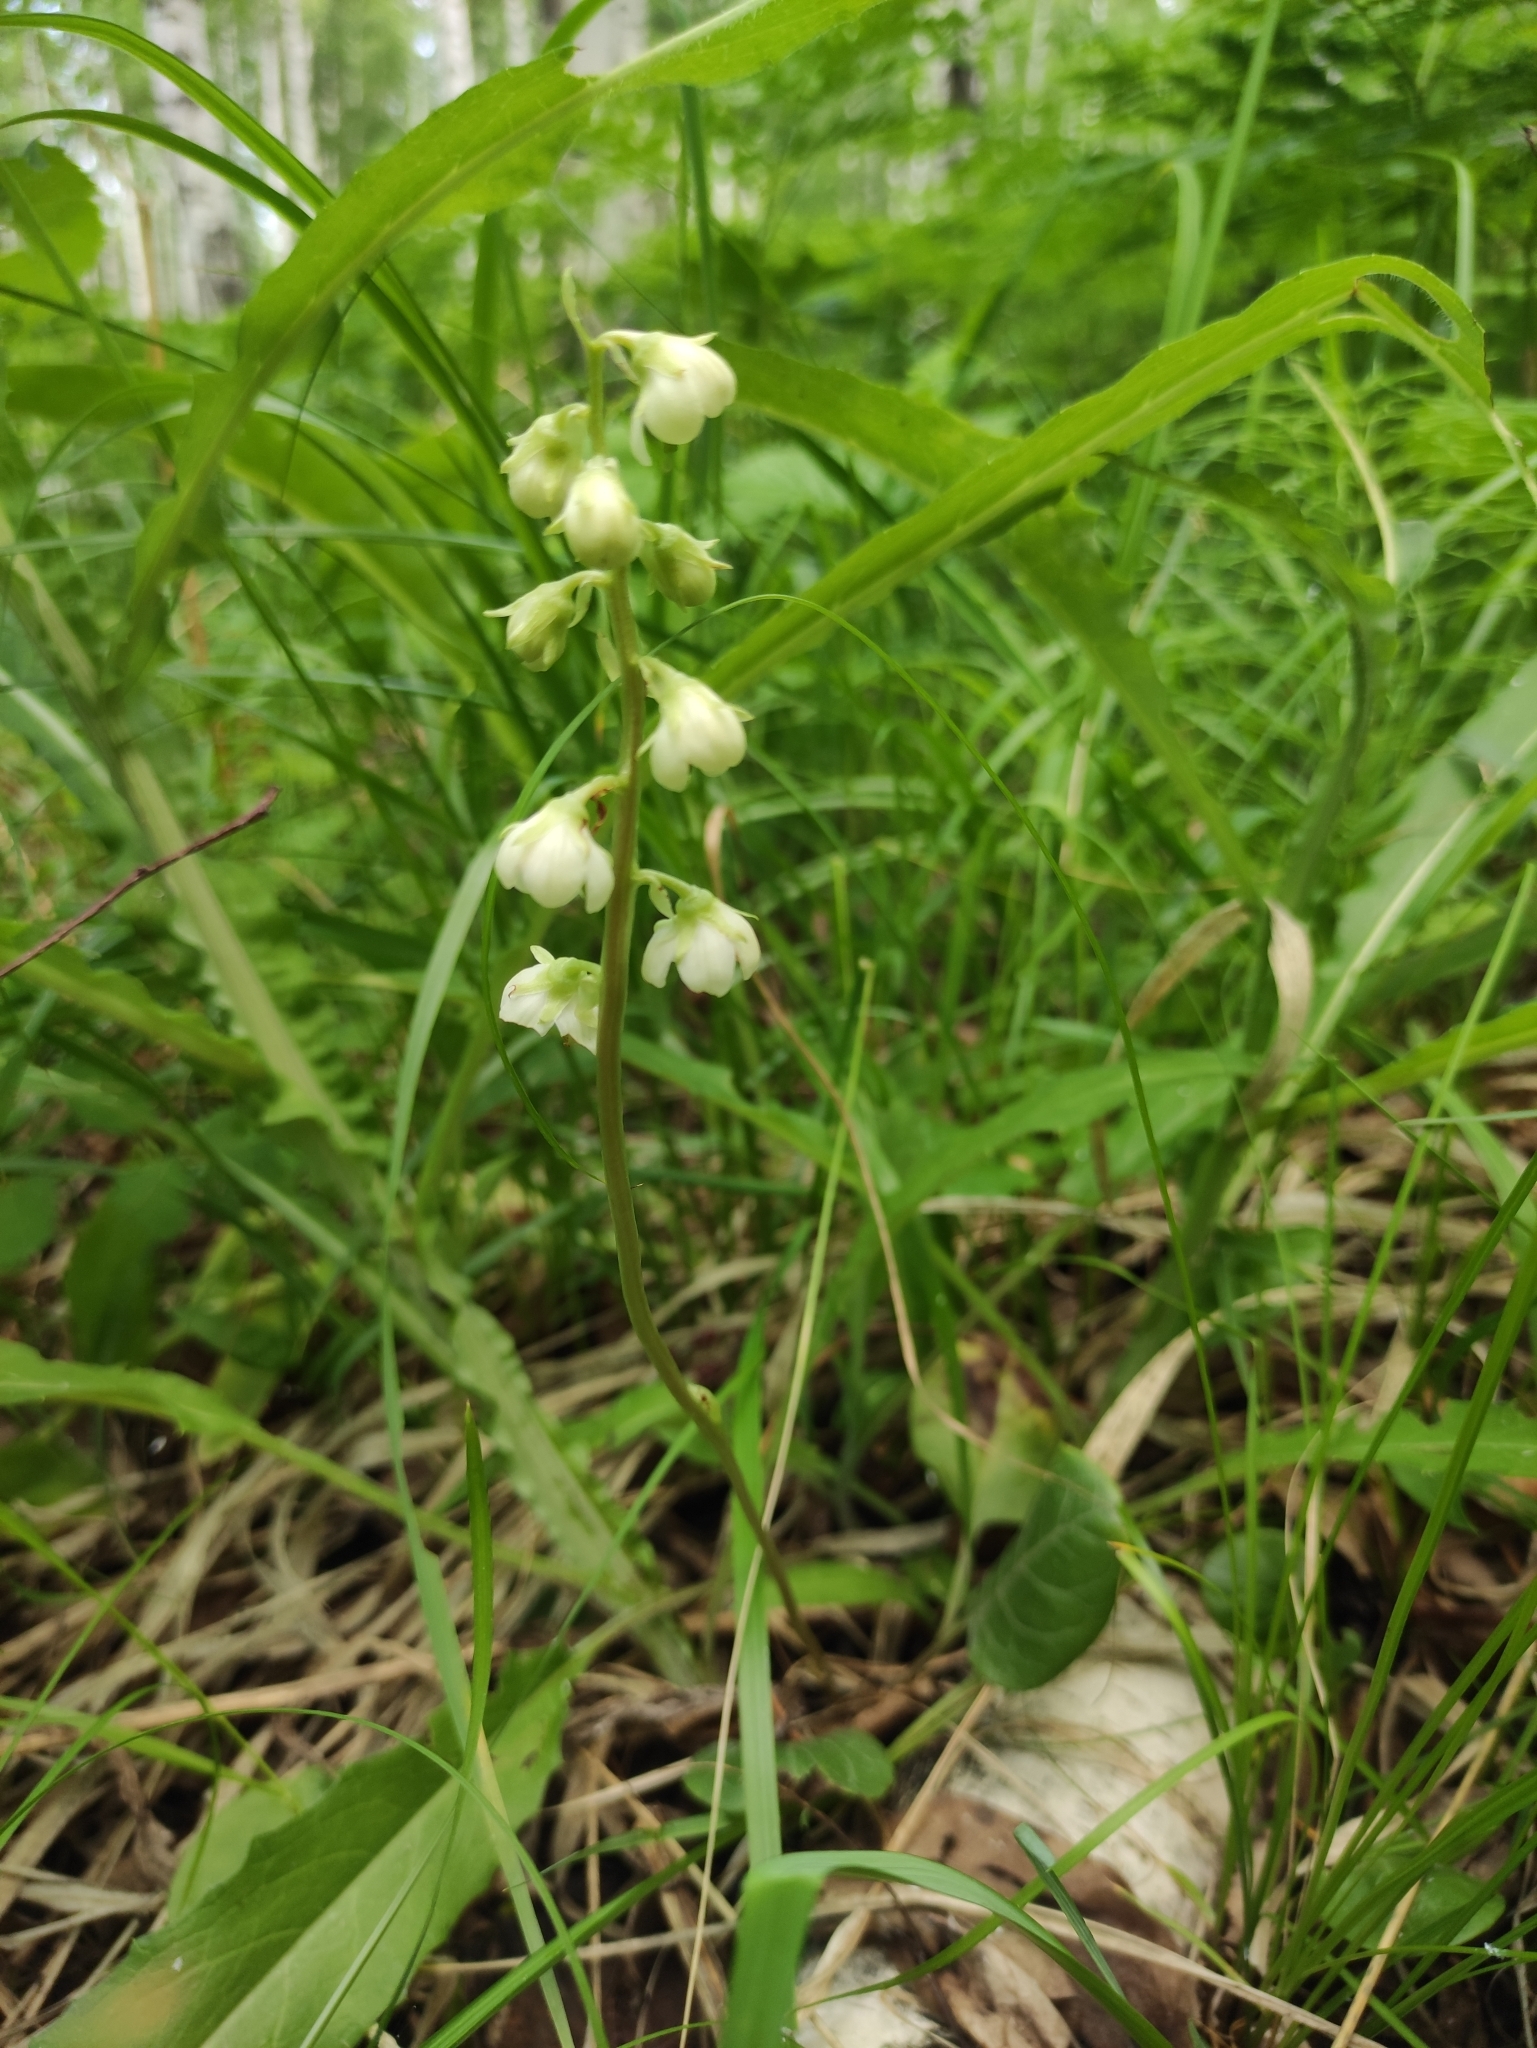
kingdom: Plantae
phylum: Tracheophyta
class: Magnoliopsida
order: Ericales
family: Ericaceae
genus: Pyrola
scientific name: Pyrola rotundifolia
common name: Round-leaved wintergreen
